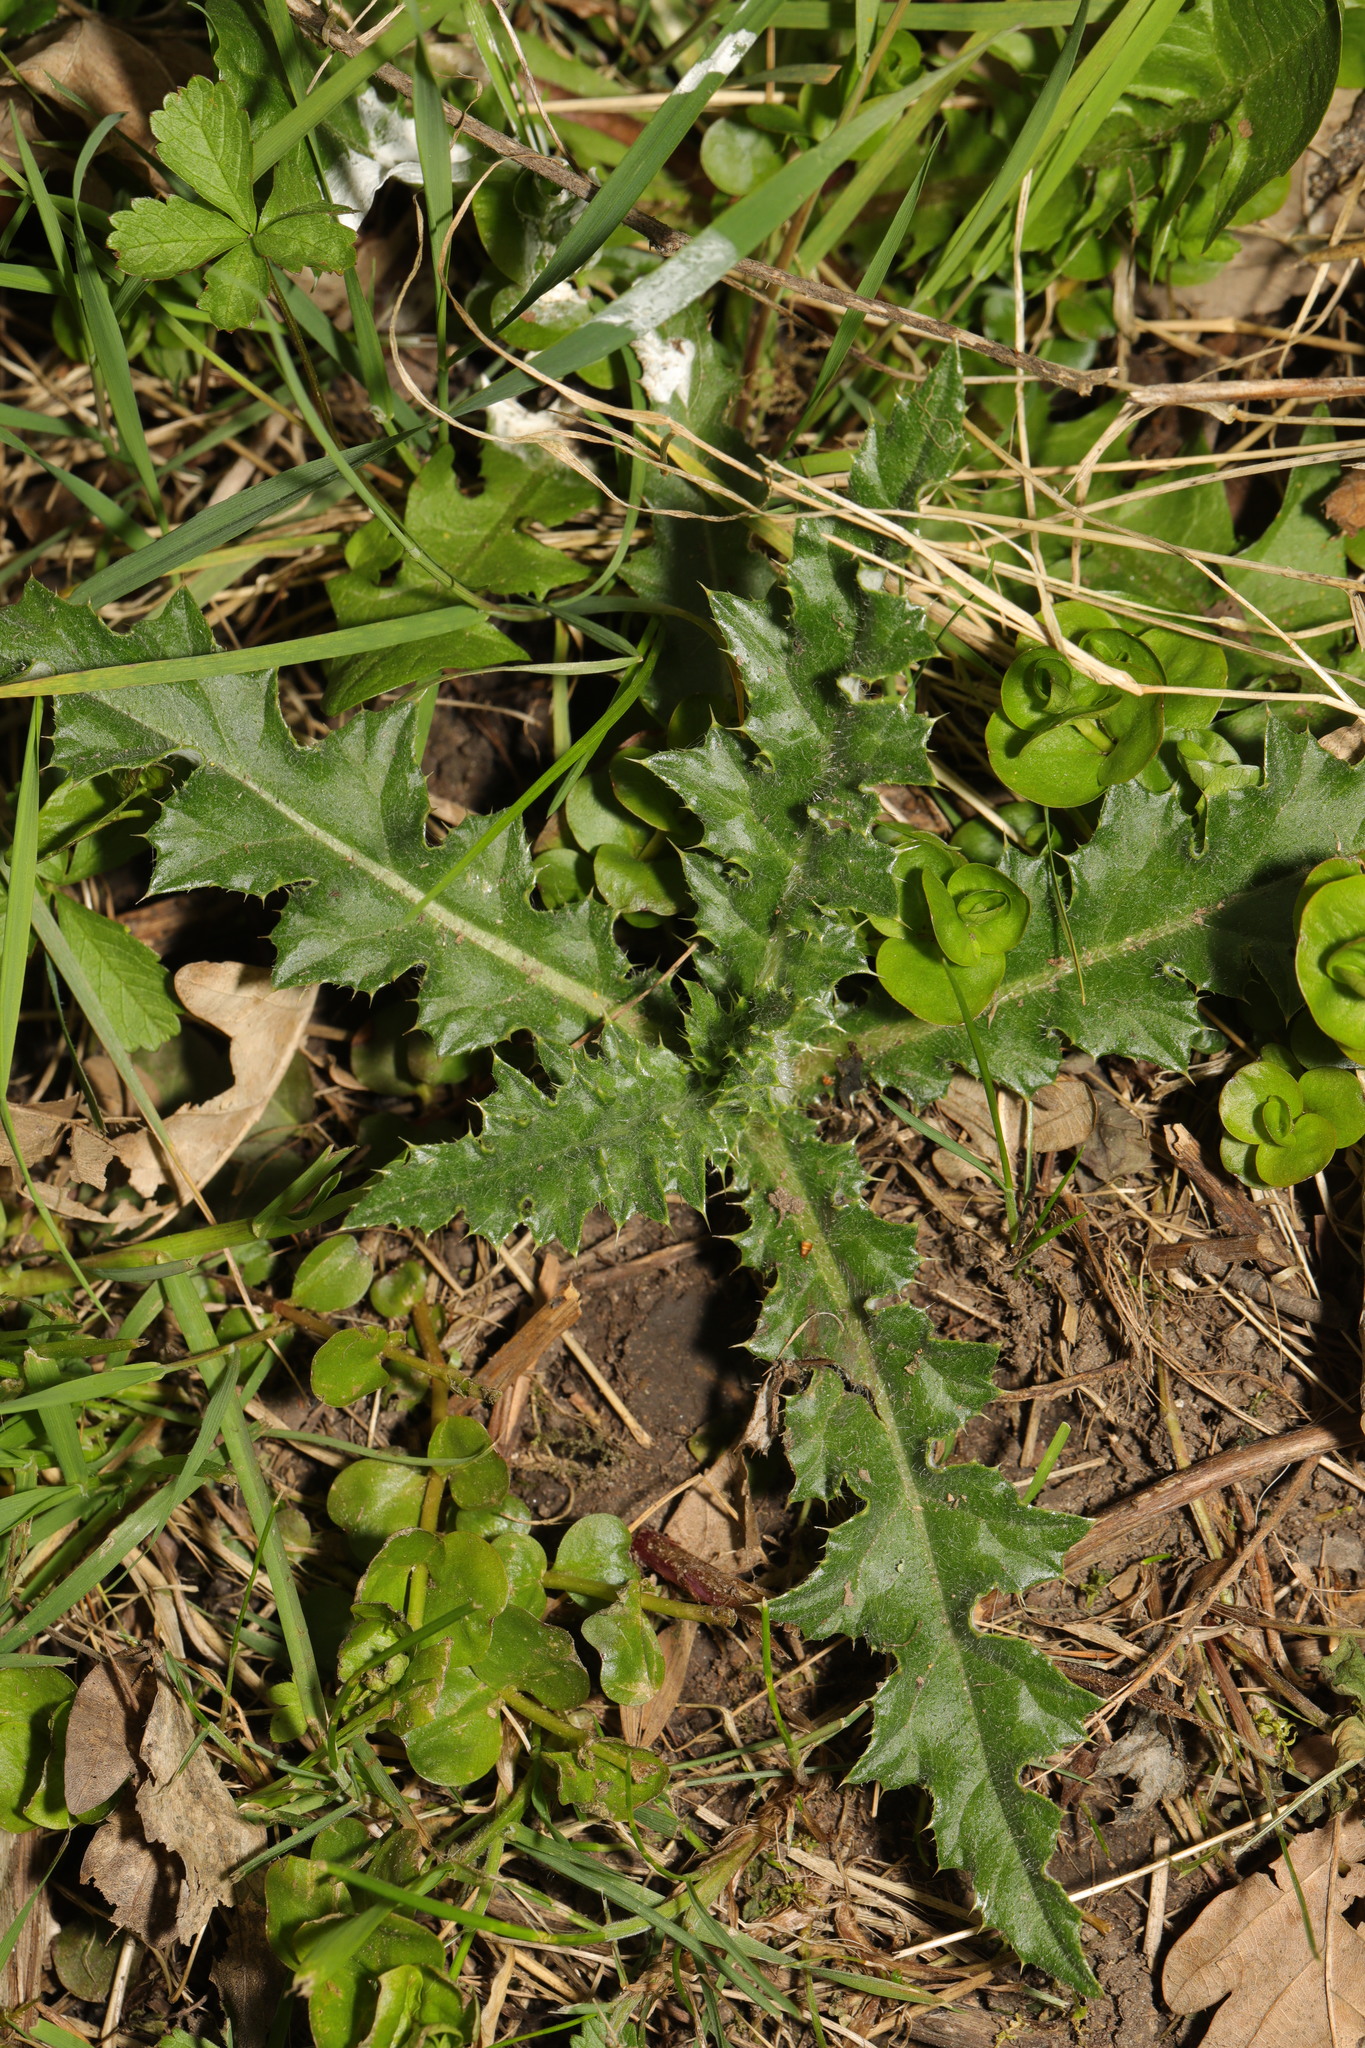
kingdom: Plantae
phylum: Tracheophyta
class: Magnoliopsida
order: Asterales
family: Asteraceae
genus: Cirsium
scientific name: Cirsium arvense
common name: Creeping thistle
